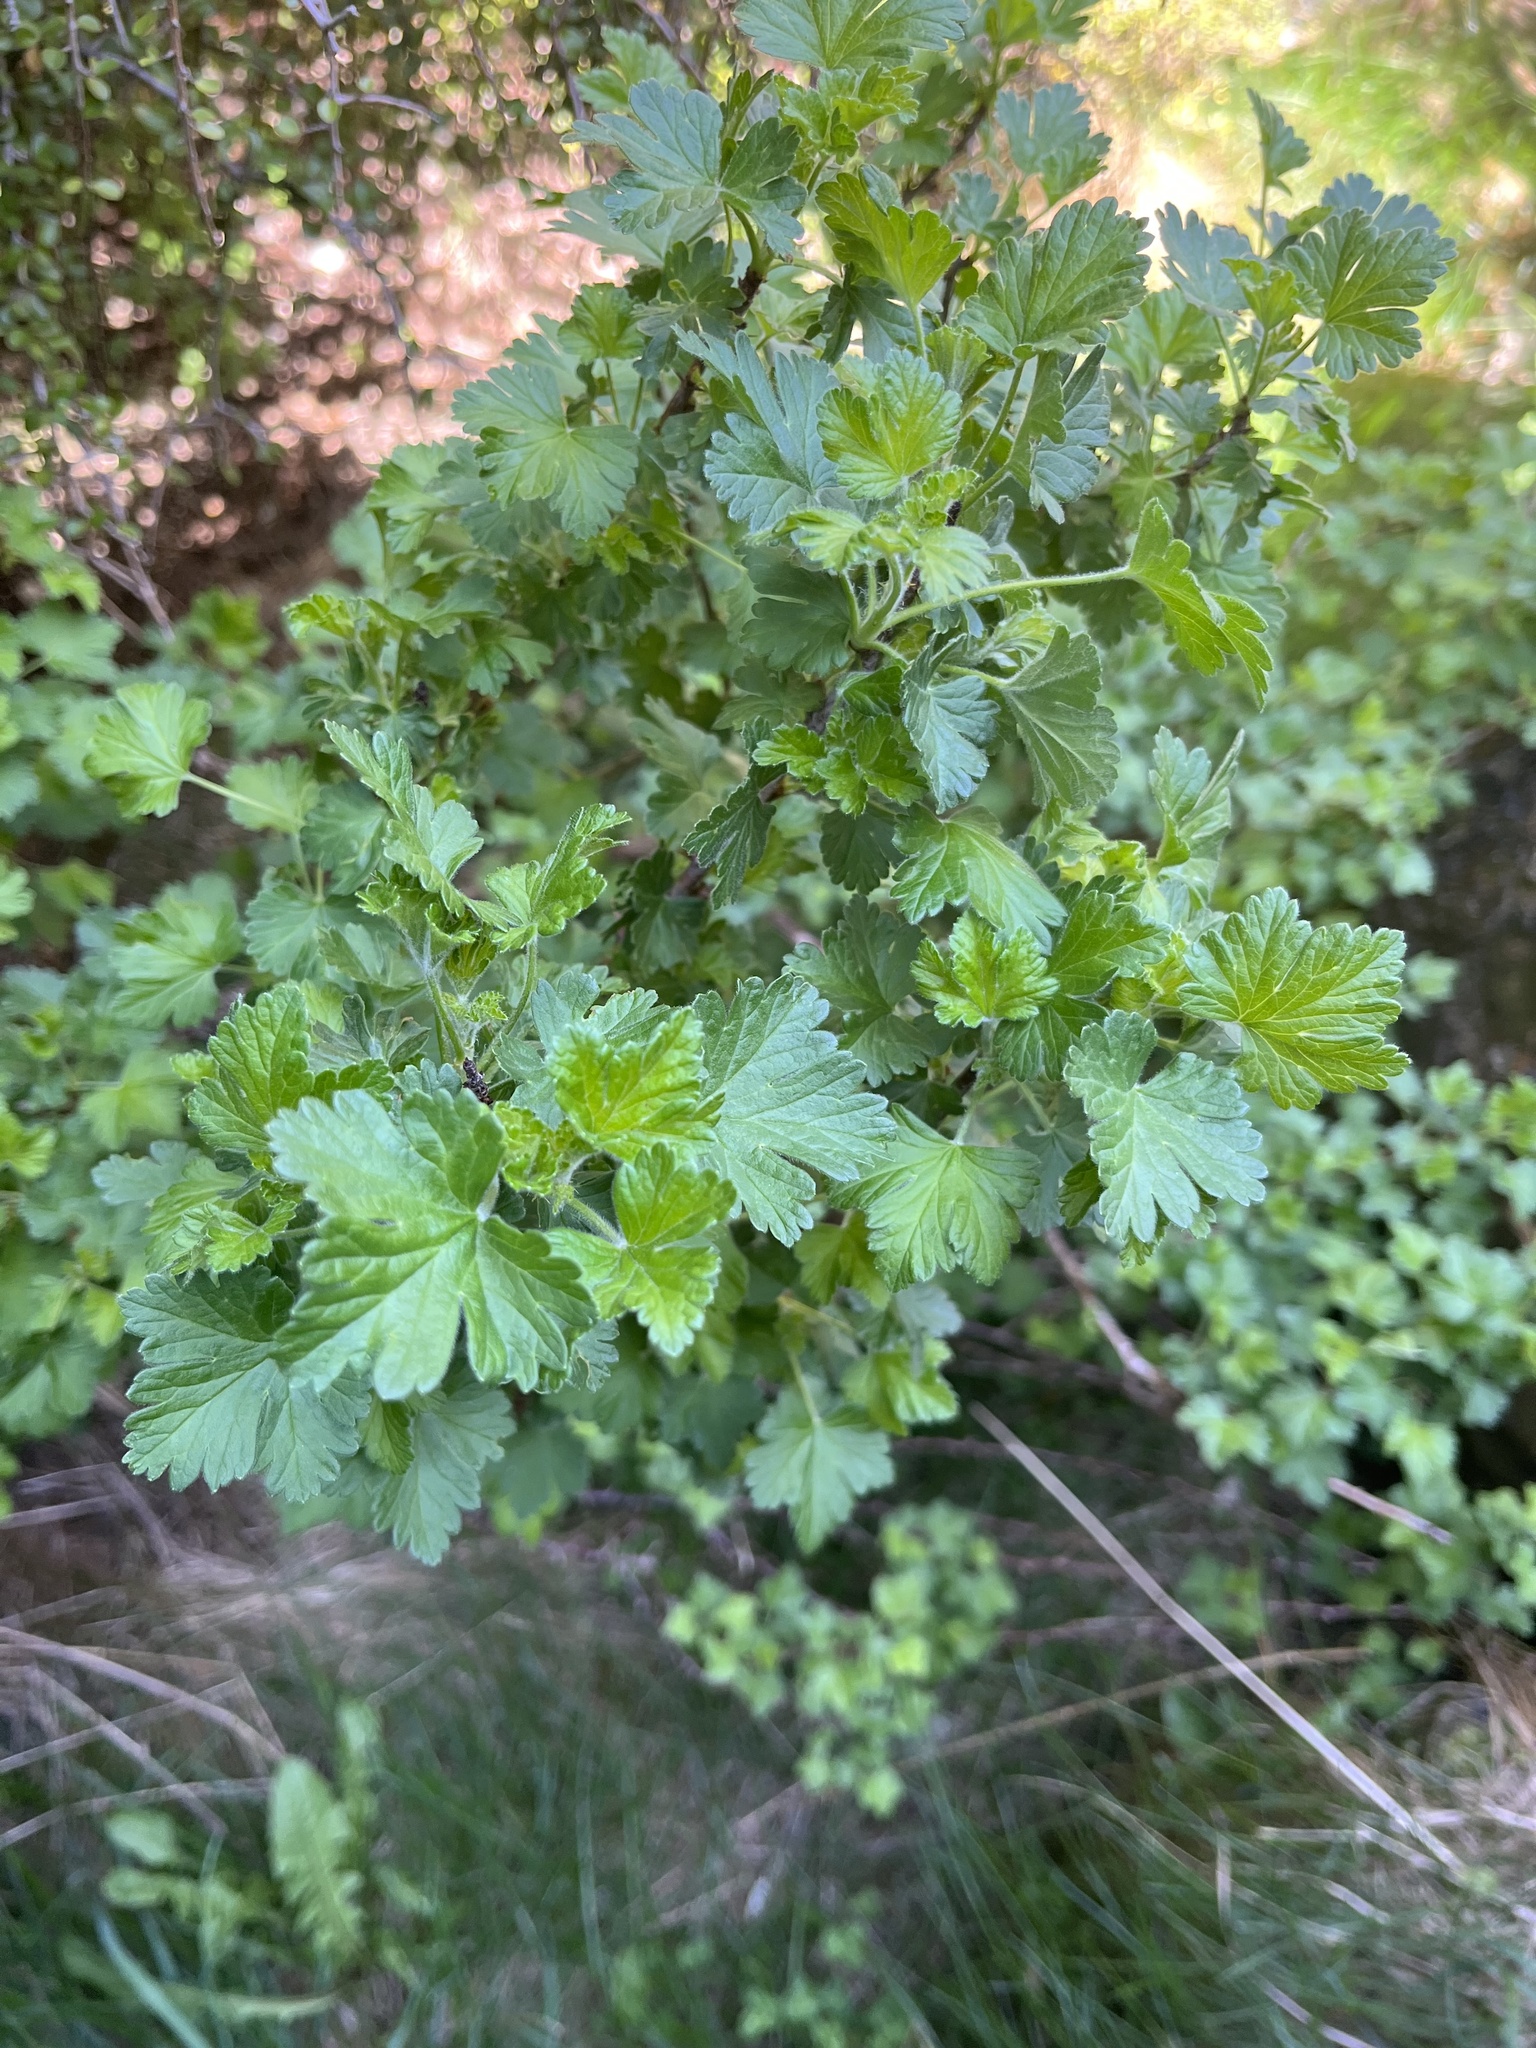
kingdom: Plantae
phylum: Tracheophyta
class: Magnoliopsida
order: Saxifragales
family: Grossulariaceae
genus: Ribes
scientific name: Ribes uva-crispa
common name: Gooseberry
